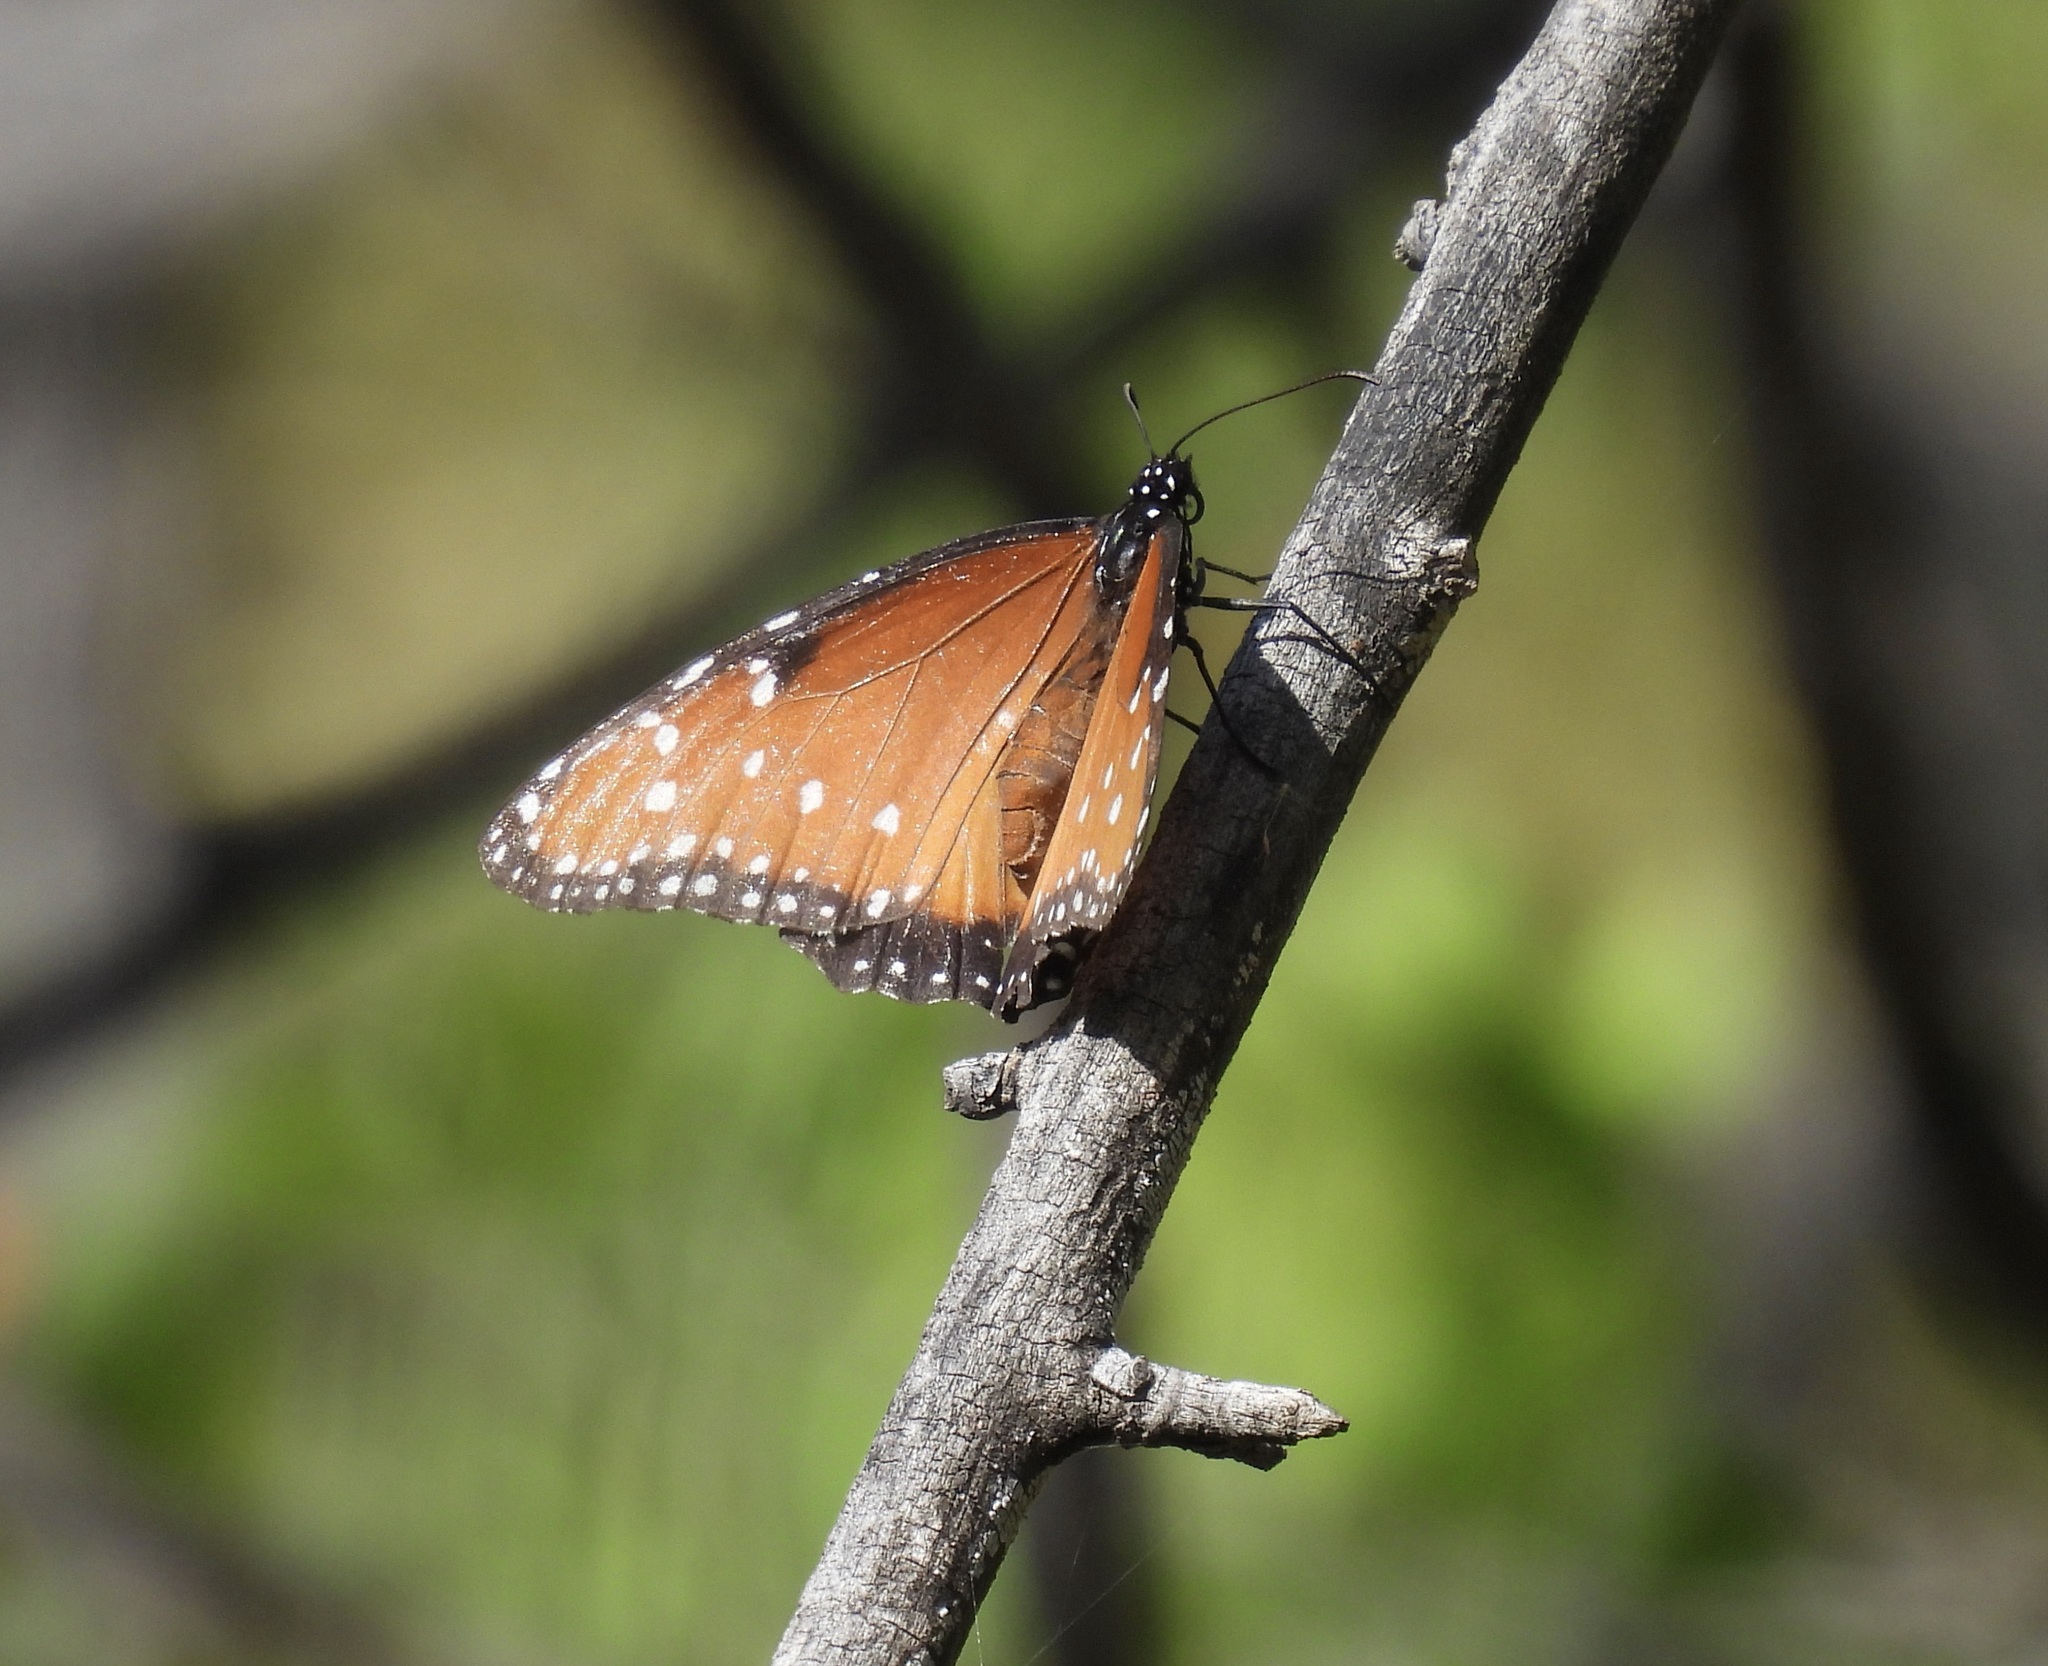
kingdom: Animalia
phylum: Arthropoda
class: Insecta
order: Lepidoptera
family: Nymphalidae
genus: Danaus
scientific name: Danaus gilippus
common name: Queen
